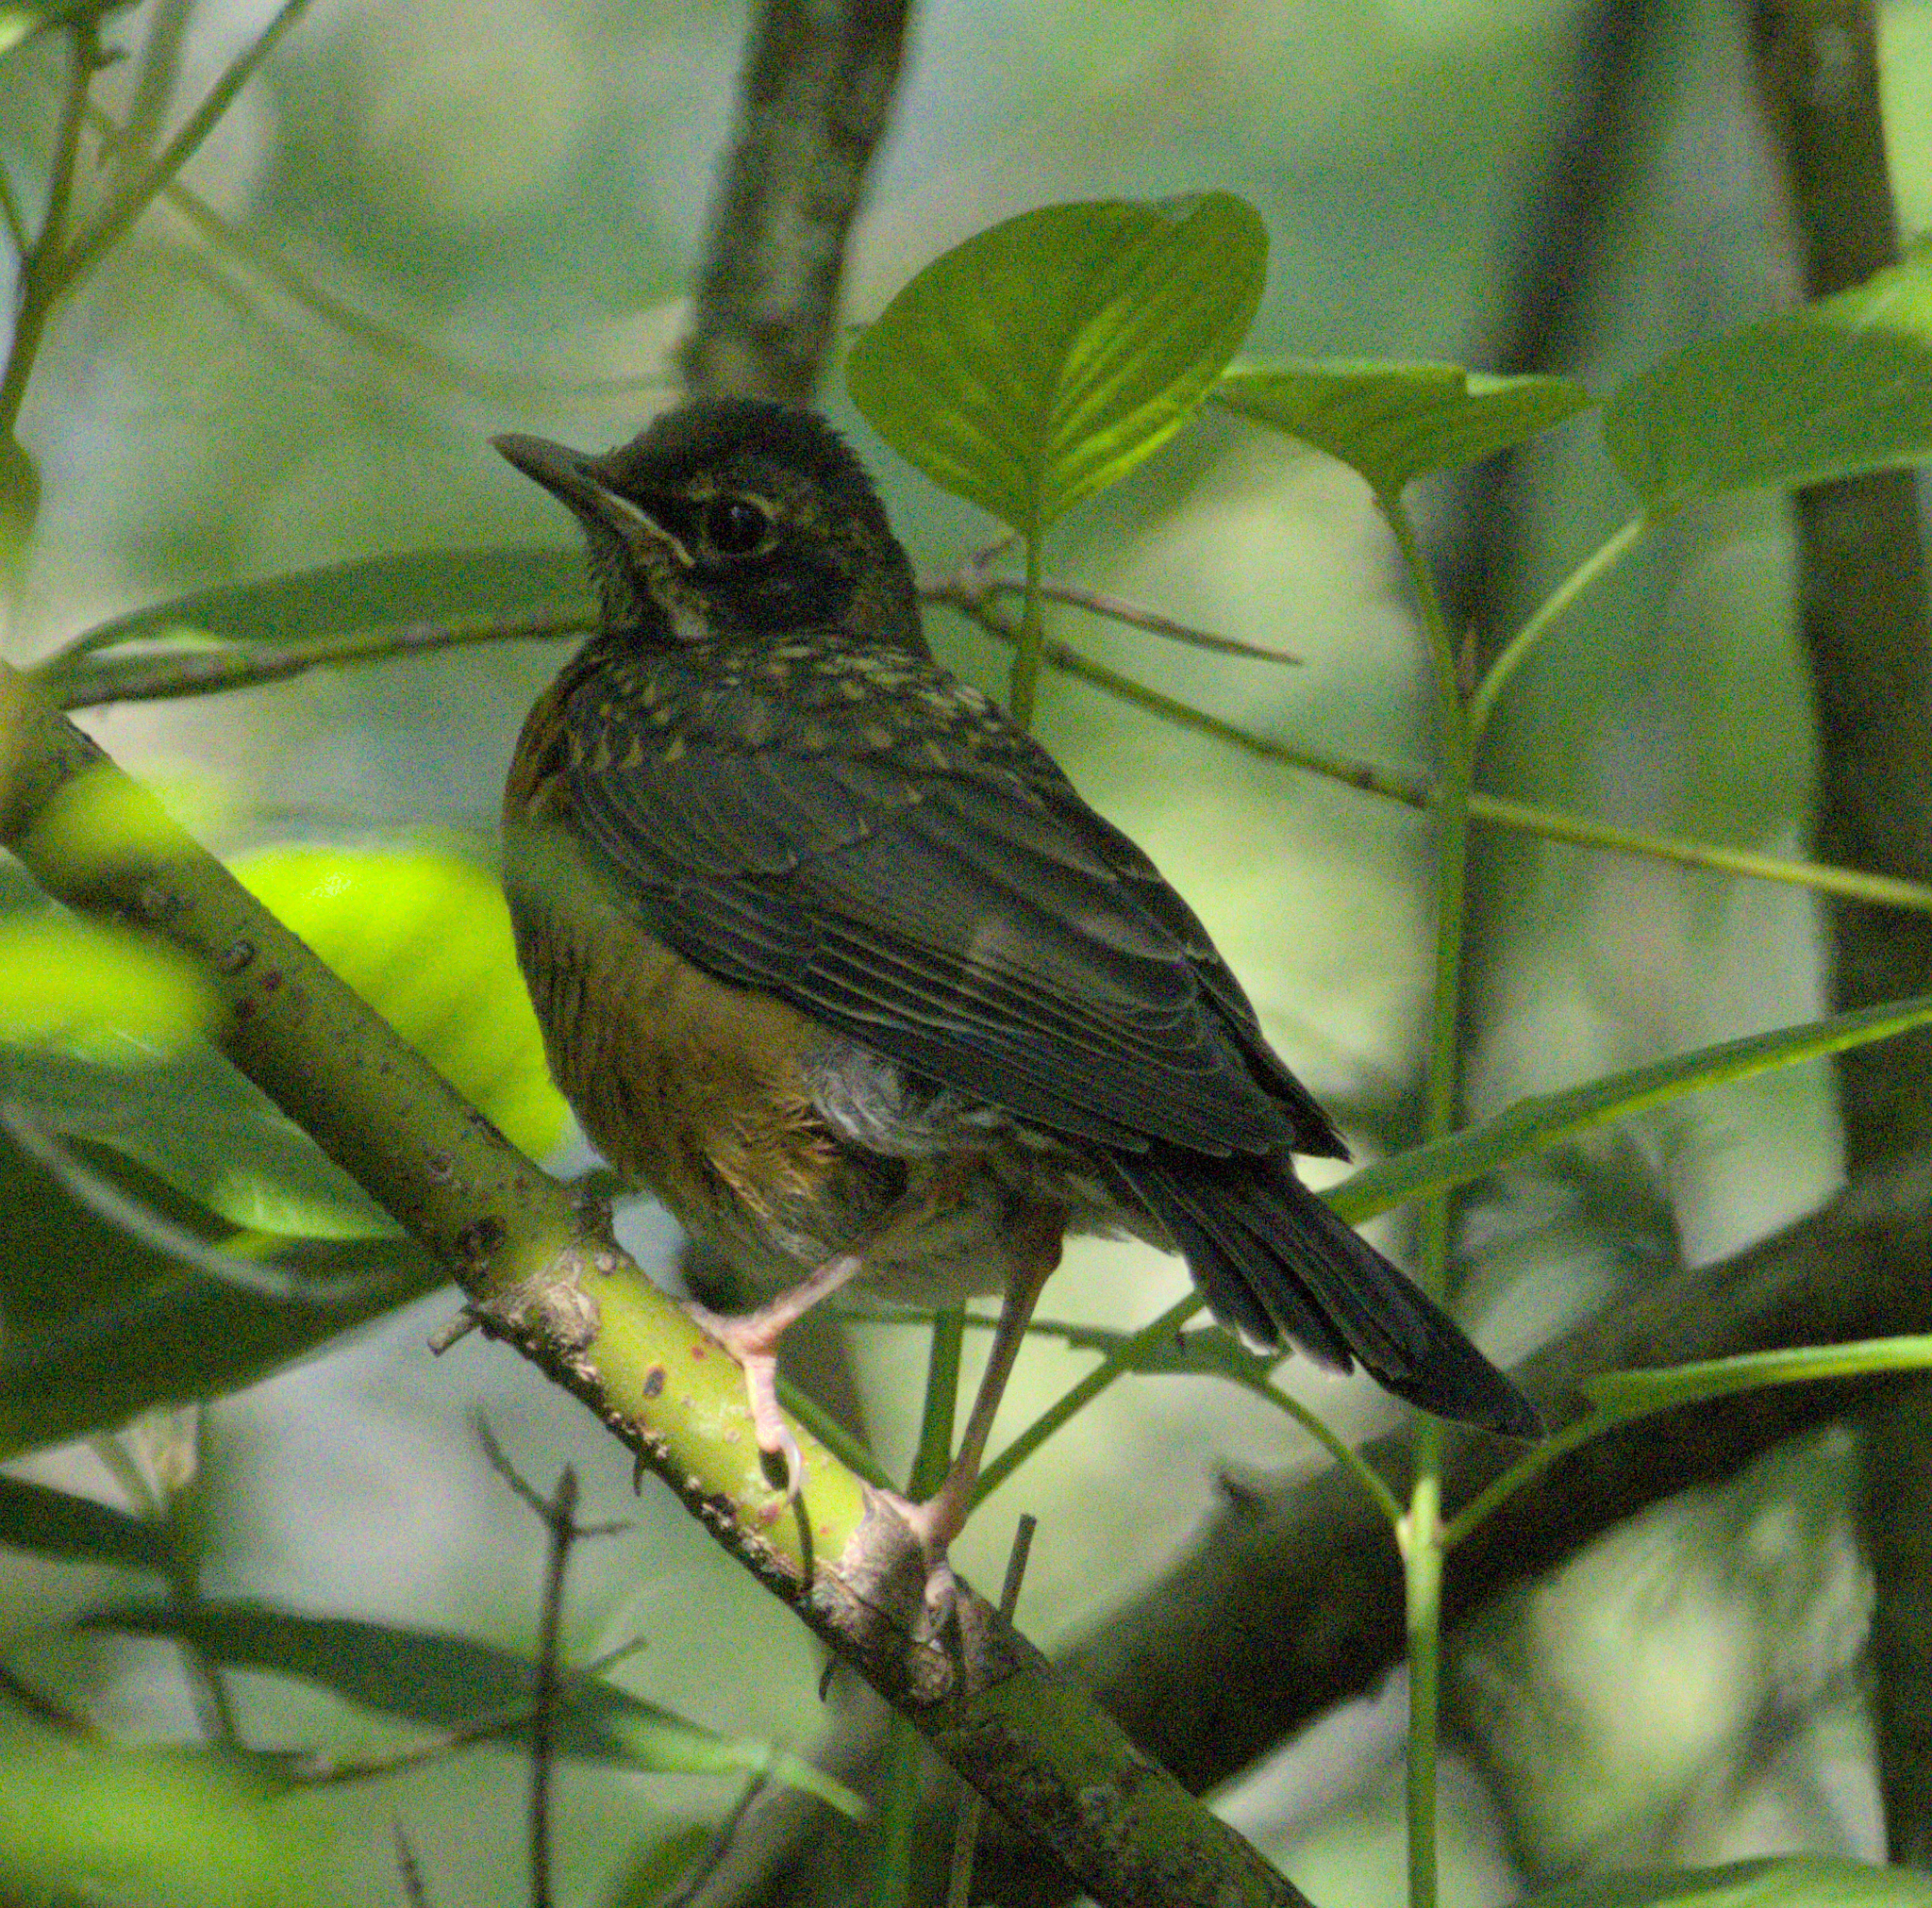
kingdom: Animalia
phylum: Chordata
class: Aves
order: Passeriformes
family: Turdidae
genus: Turdus
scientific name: Turdus migratorius
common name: American robin
